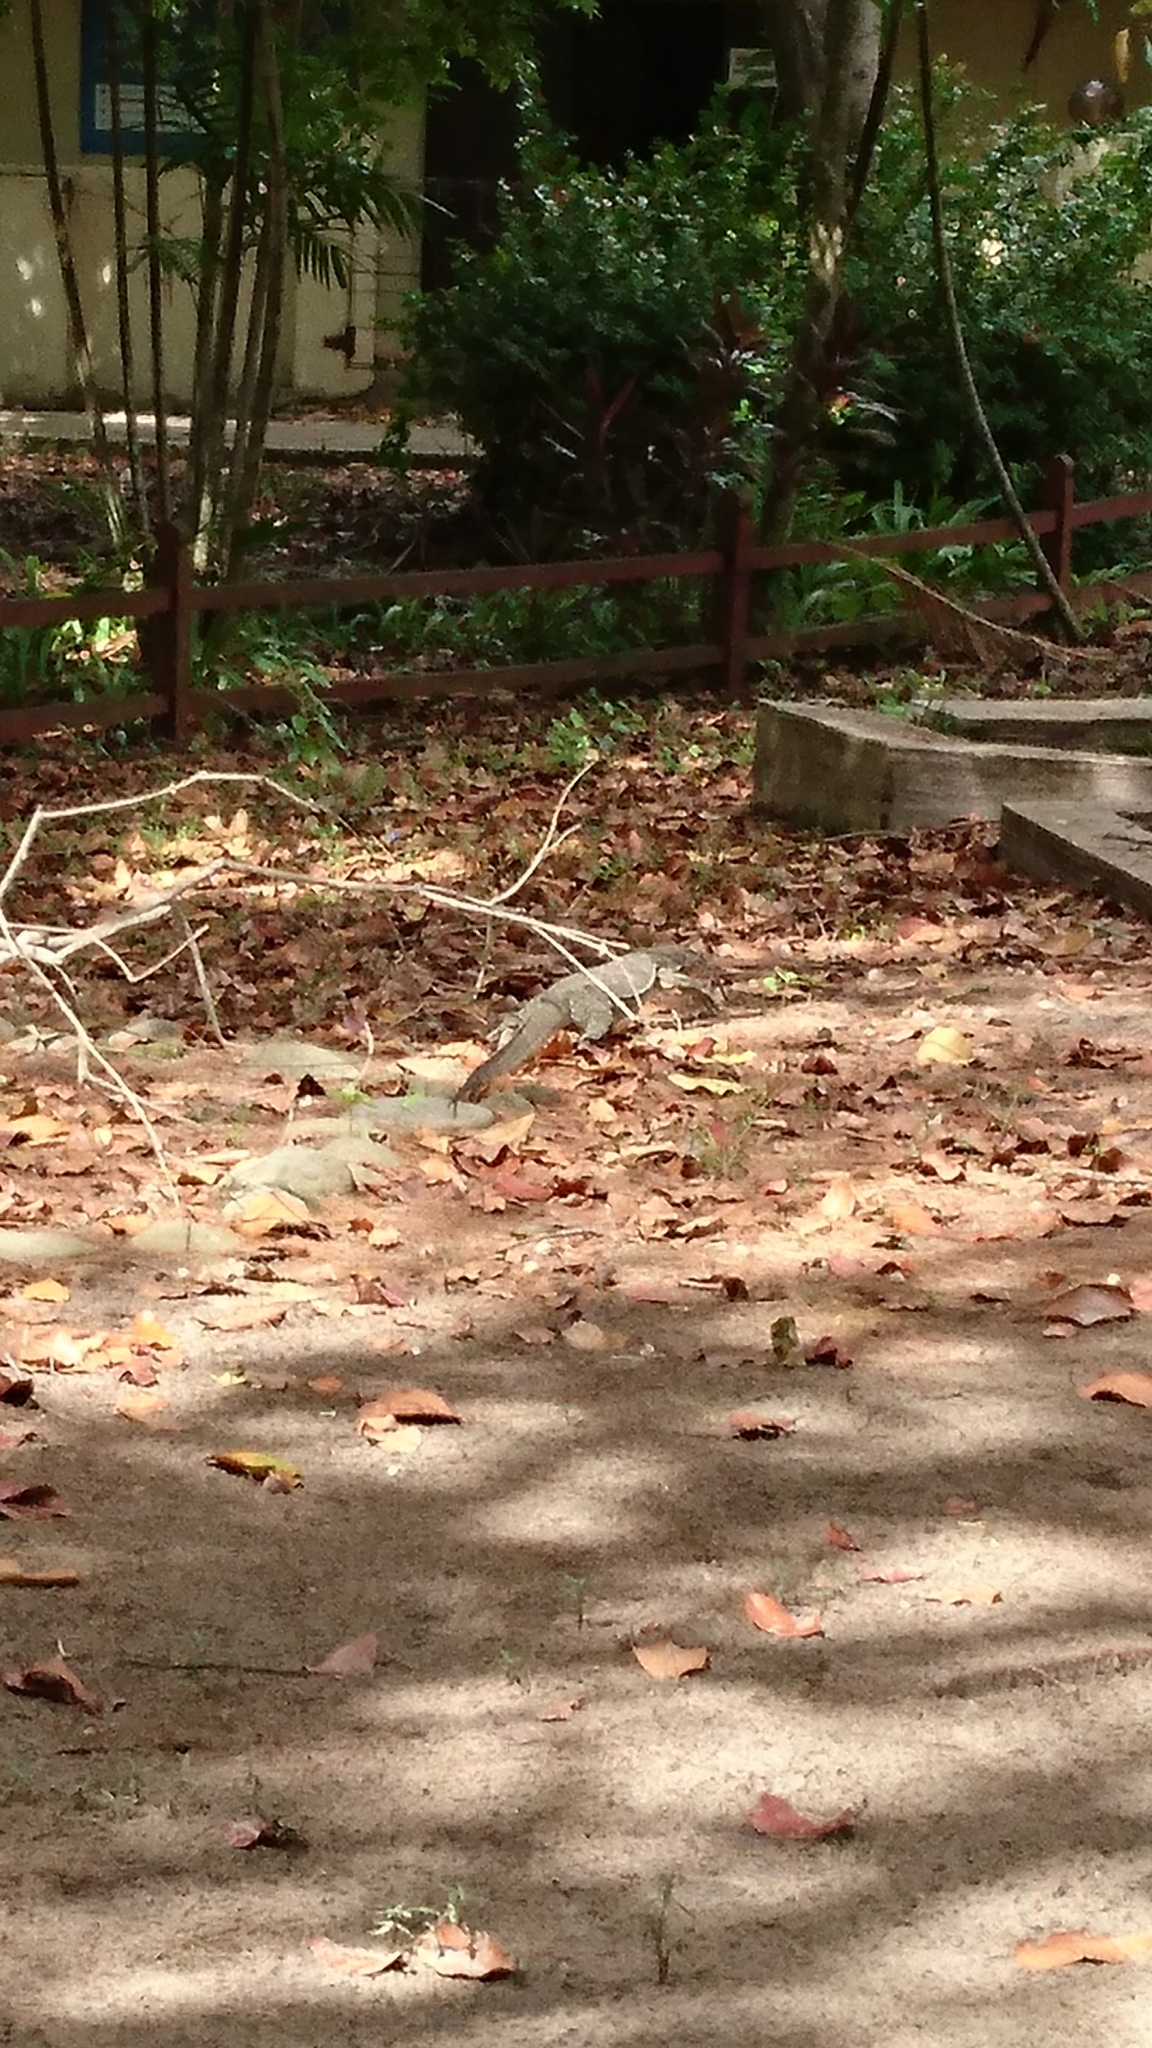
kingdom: Animalia
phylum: Chordata
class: Squamata
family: Varanidae
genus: Varanus
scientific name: Varanus salvator
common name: Common water monitor
